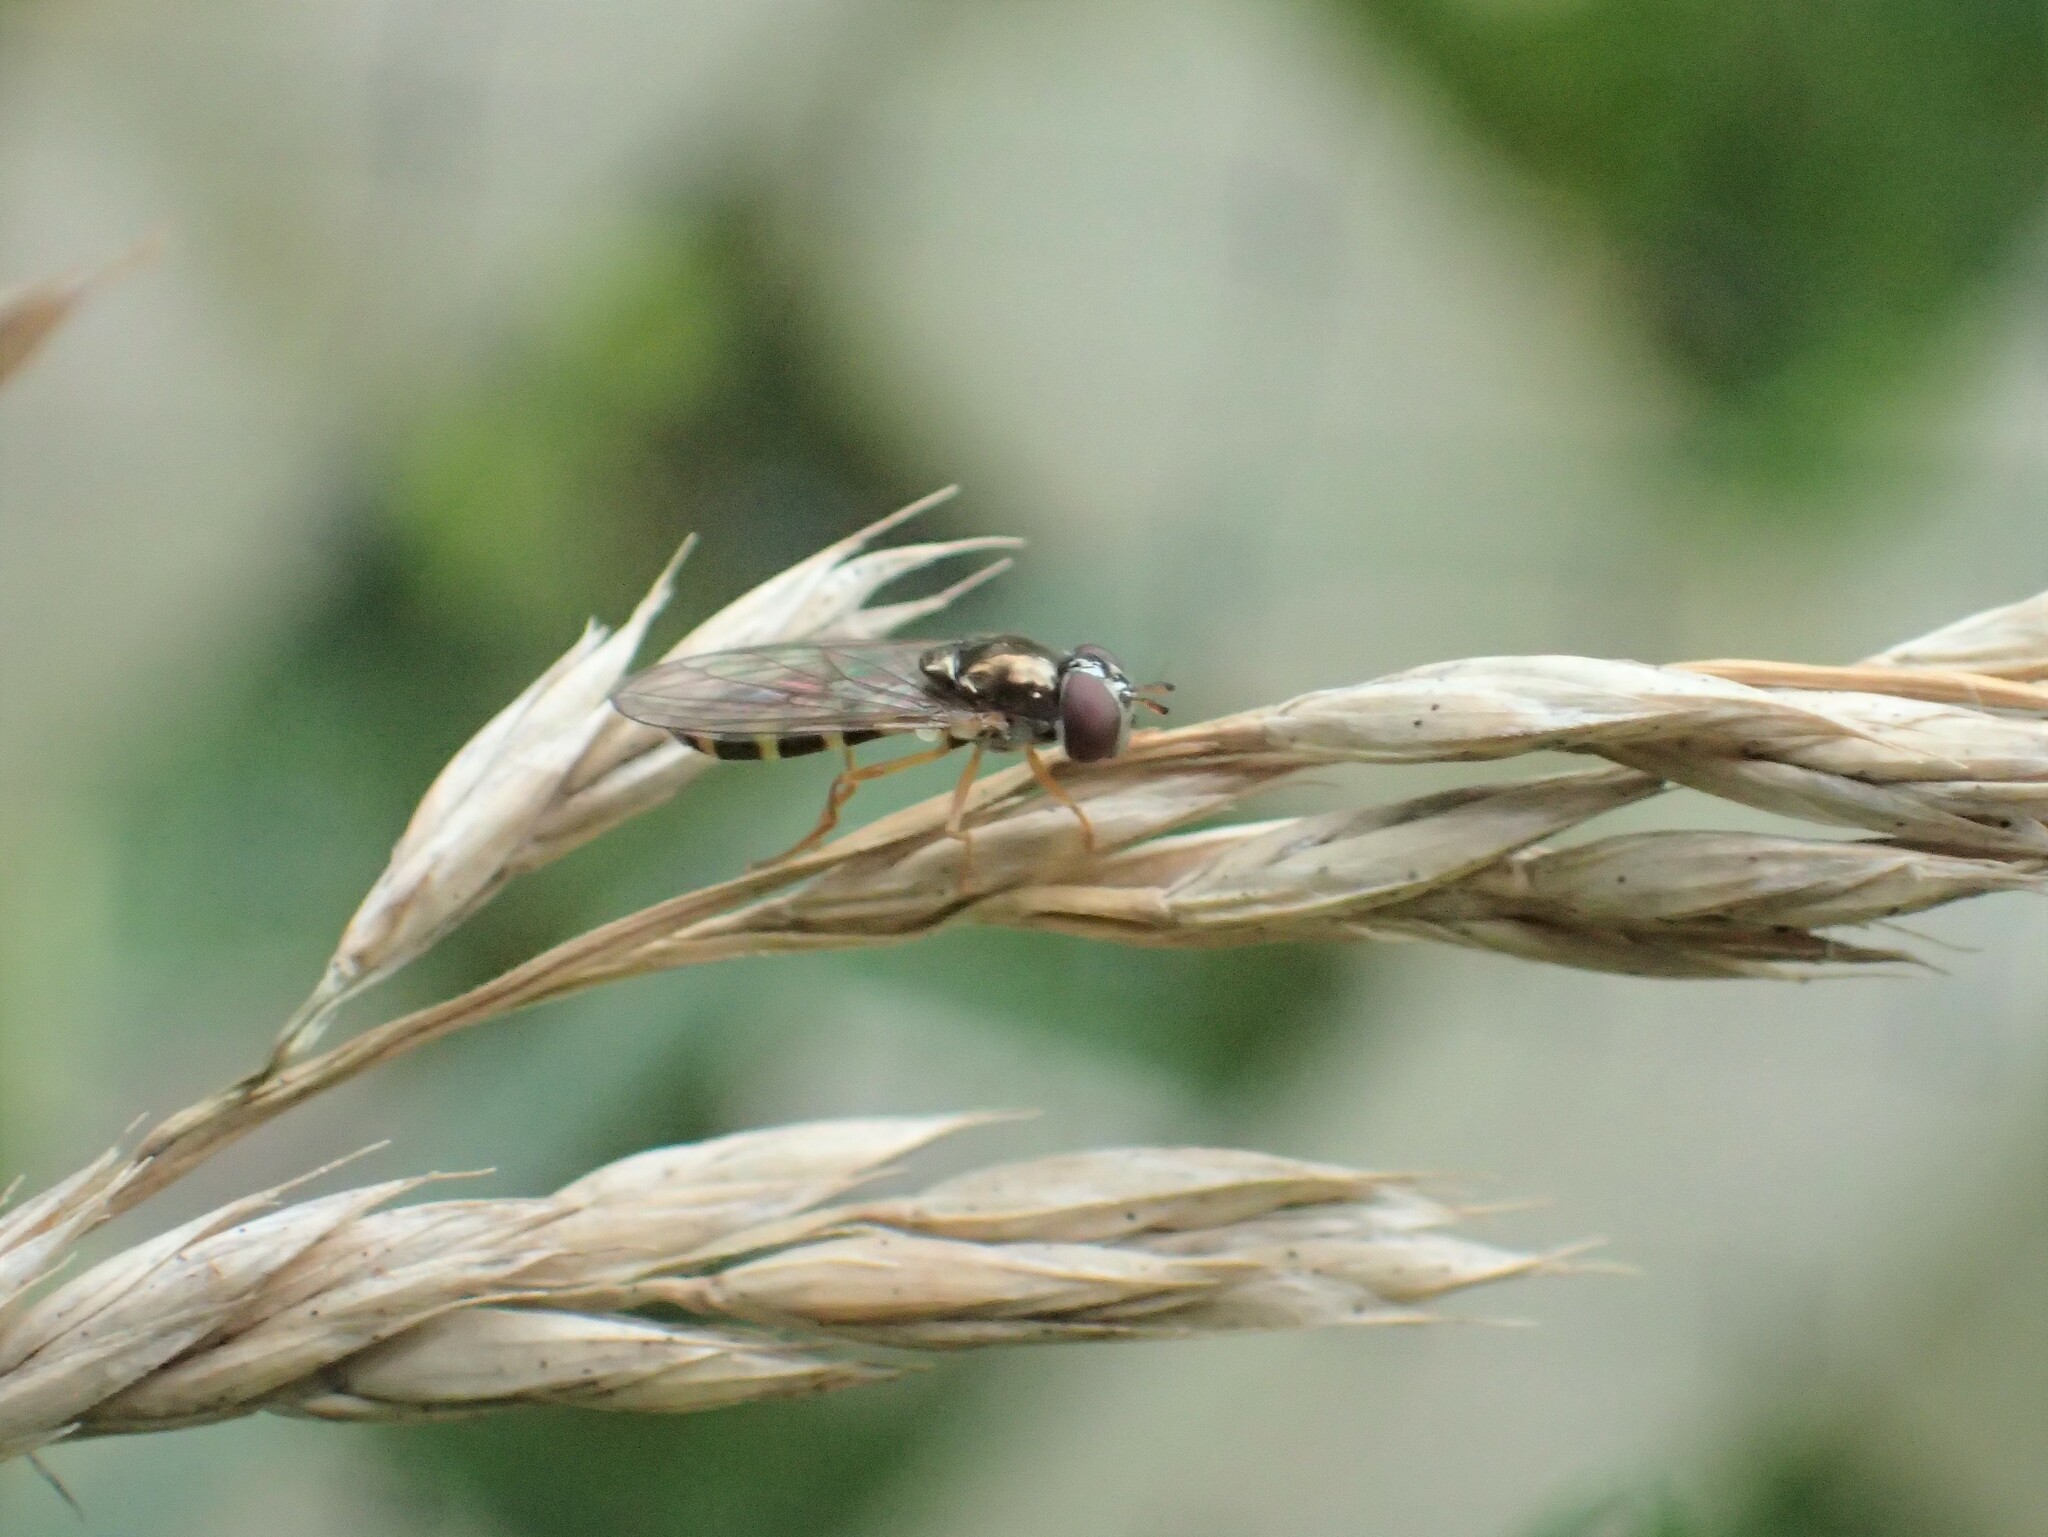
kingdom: Animalia
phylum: Arthropoda
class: Insecta
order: Diptera
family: Syrphidae
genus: Melanostoma
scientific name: Melanostoma mellina
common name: Hover fly
